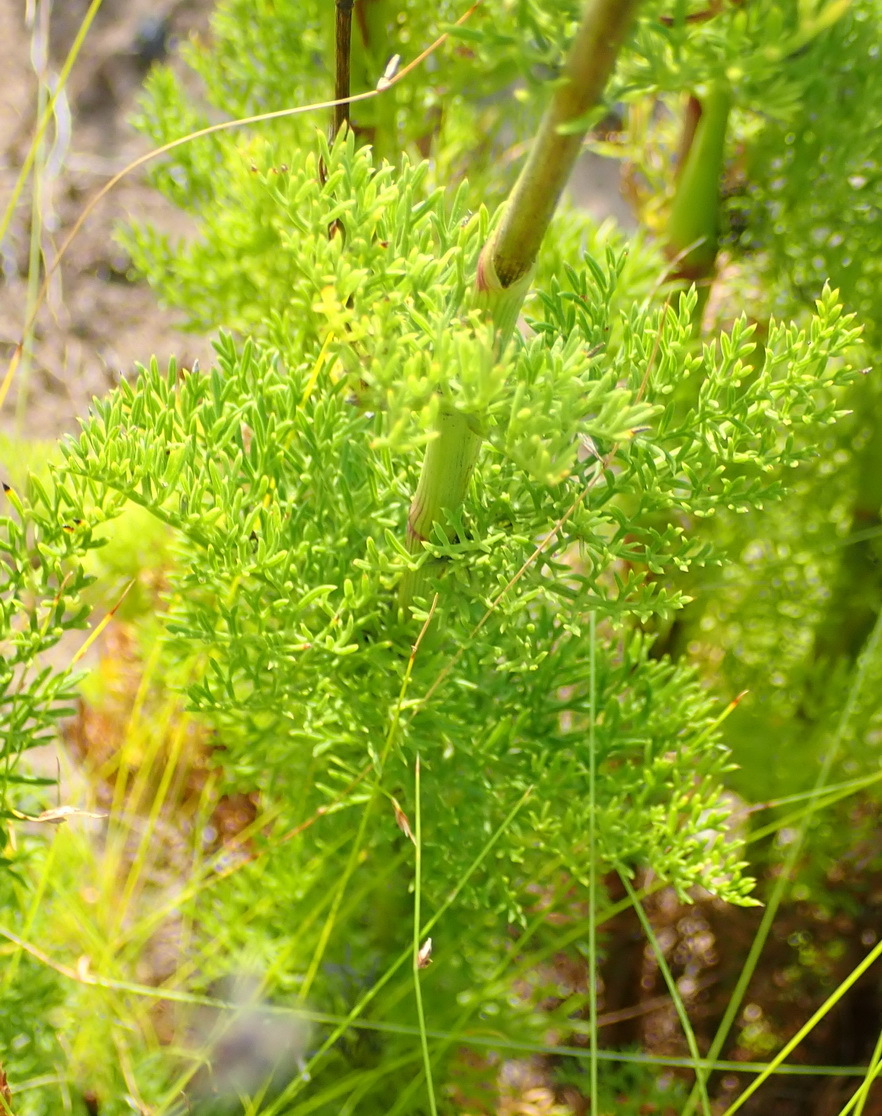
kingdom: Plantae
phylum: Tracheophyta
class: Magnoliopsida
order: Apiales
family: Apiaceae
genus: Notobubon
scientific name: Notobubon ferulaceum
